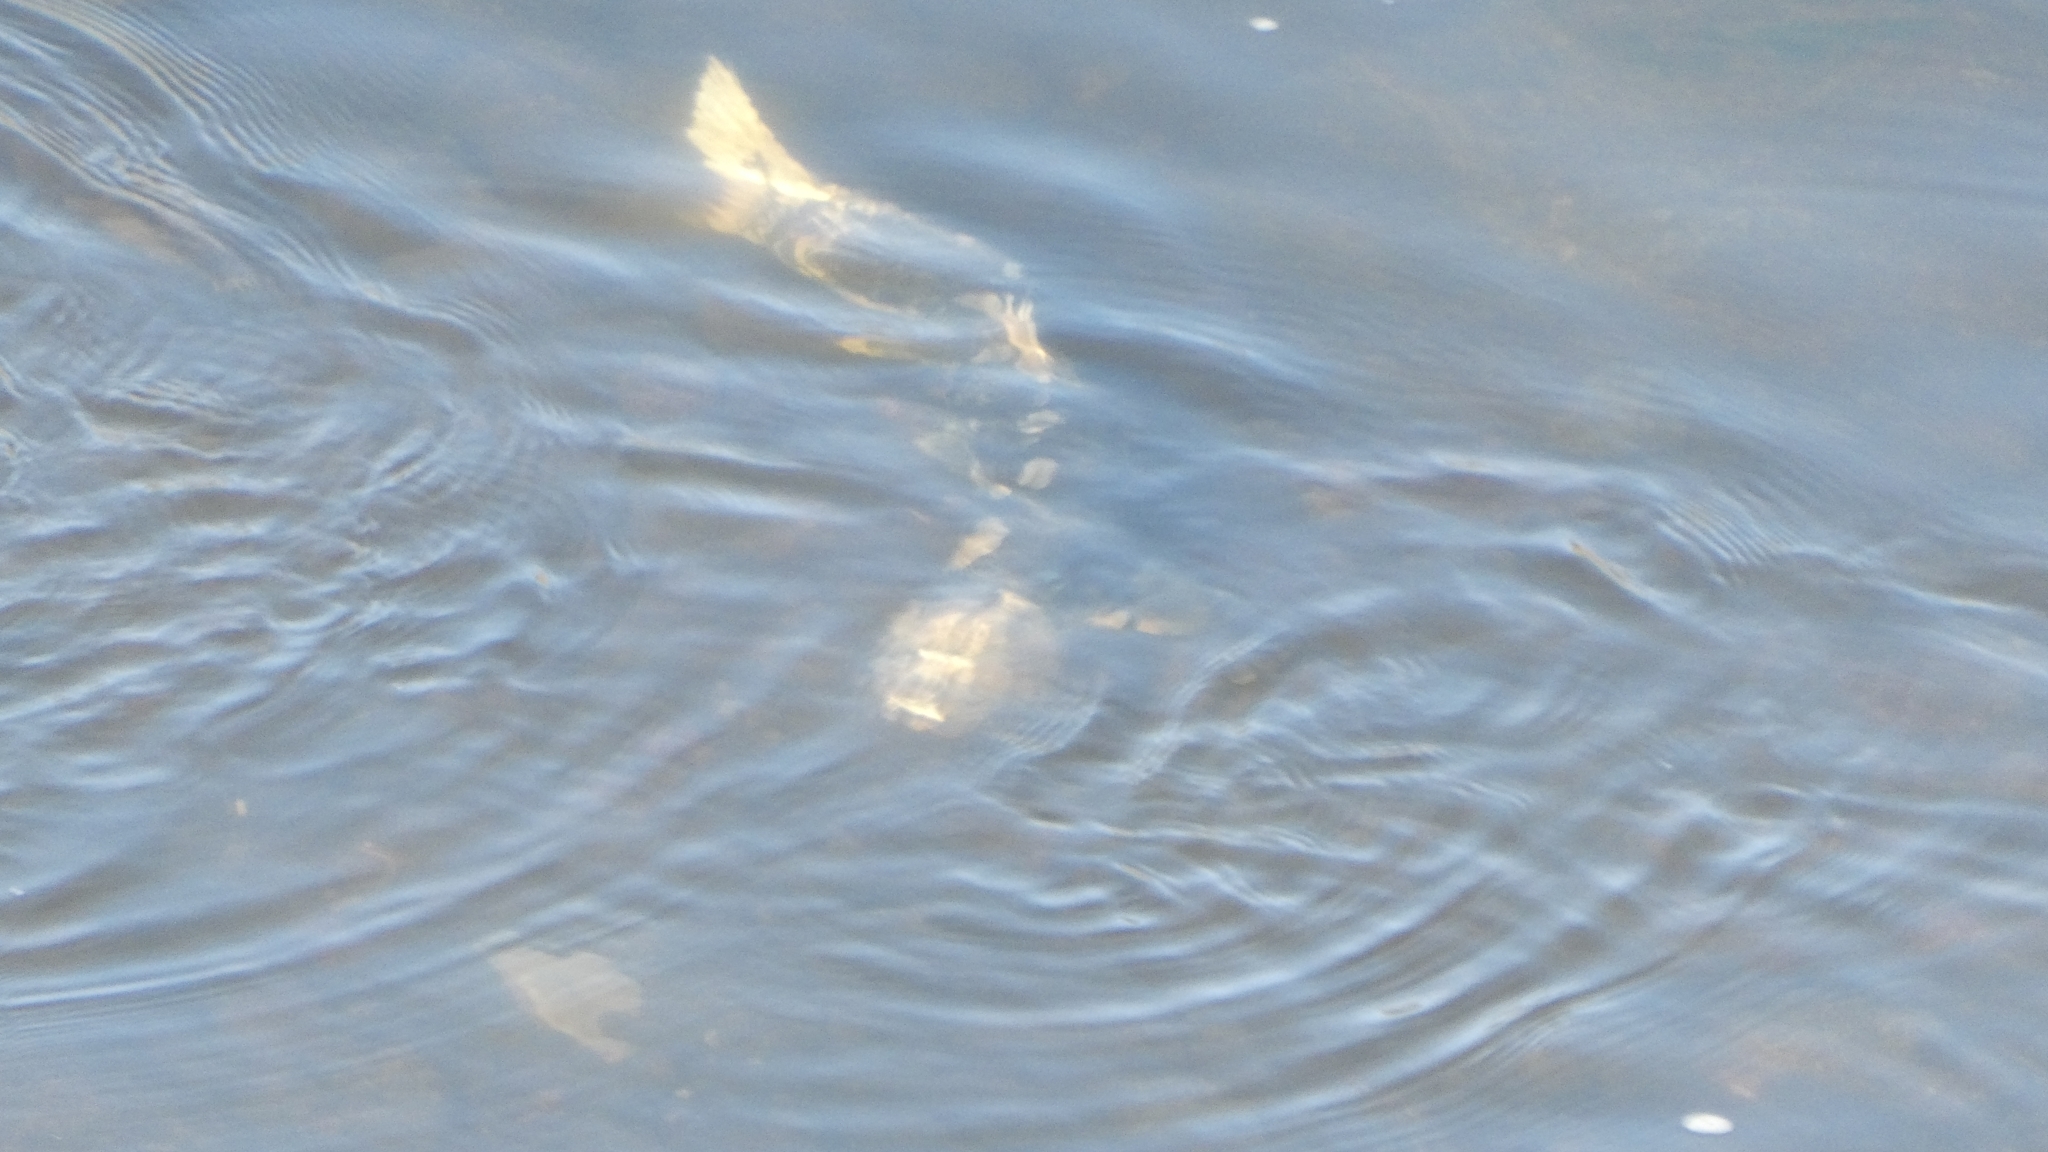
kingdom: Animalia
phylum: Chordata
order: Salmoniformes
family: Salmonidae
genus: Oncorhynchus
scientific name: Oncorhynchus tshawytscha
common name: Chinook salmon
